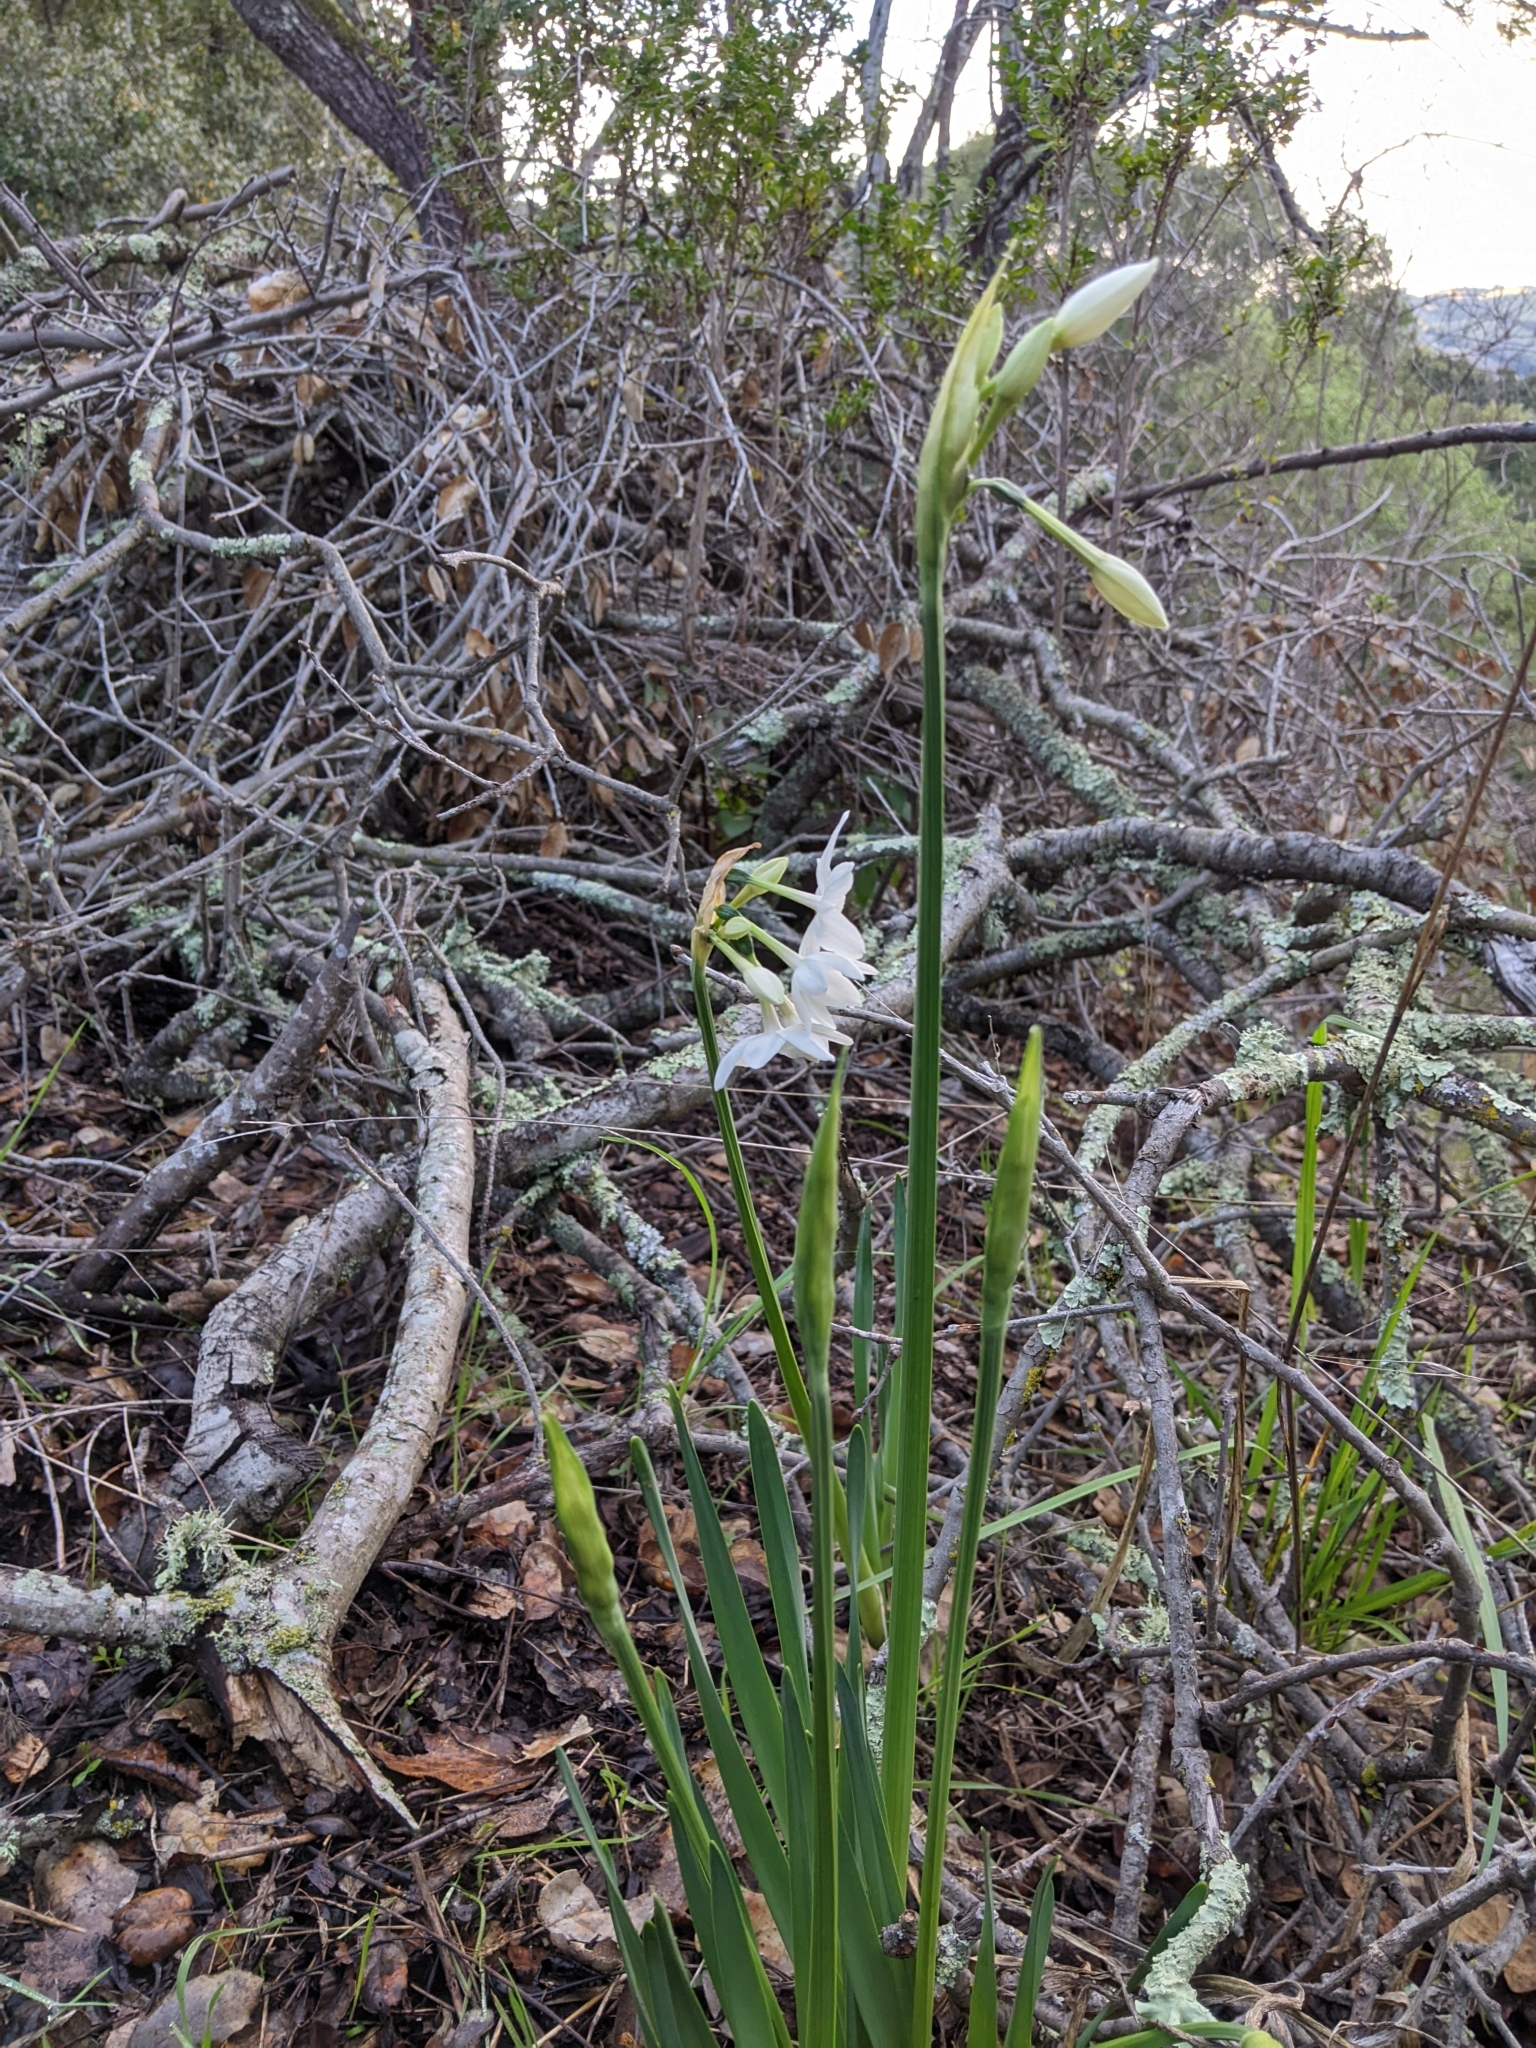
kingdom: Plantae
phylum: Tracheophyta
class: Liliopsida
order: Asparagales
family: Amaryllidaceae
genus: Narcissus
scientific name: Narcissus papyraceus
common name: Paper-white daffodil
